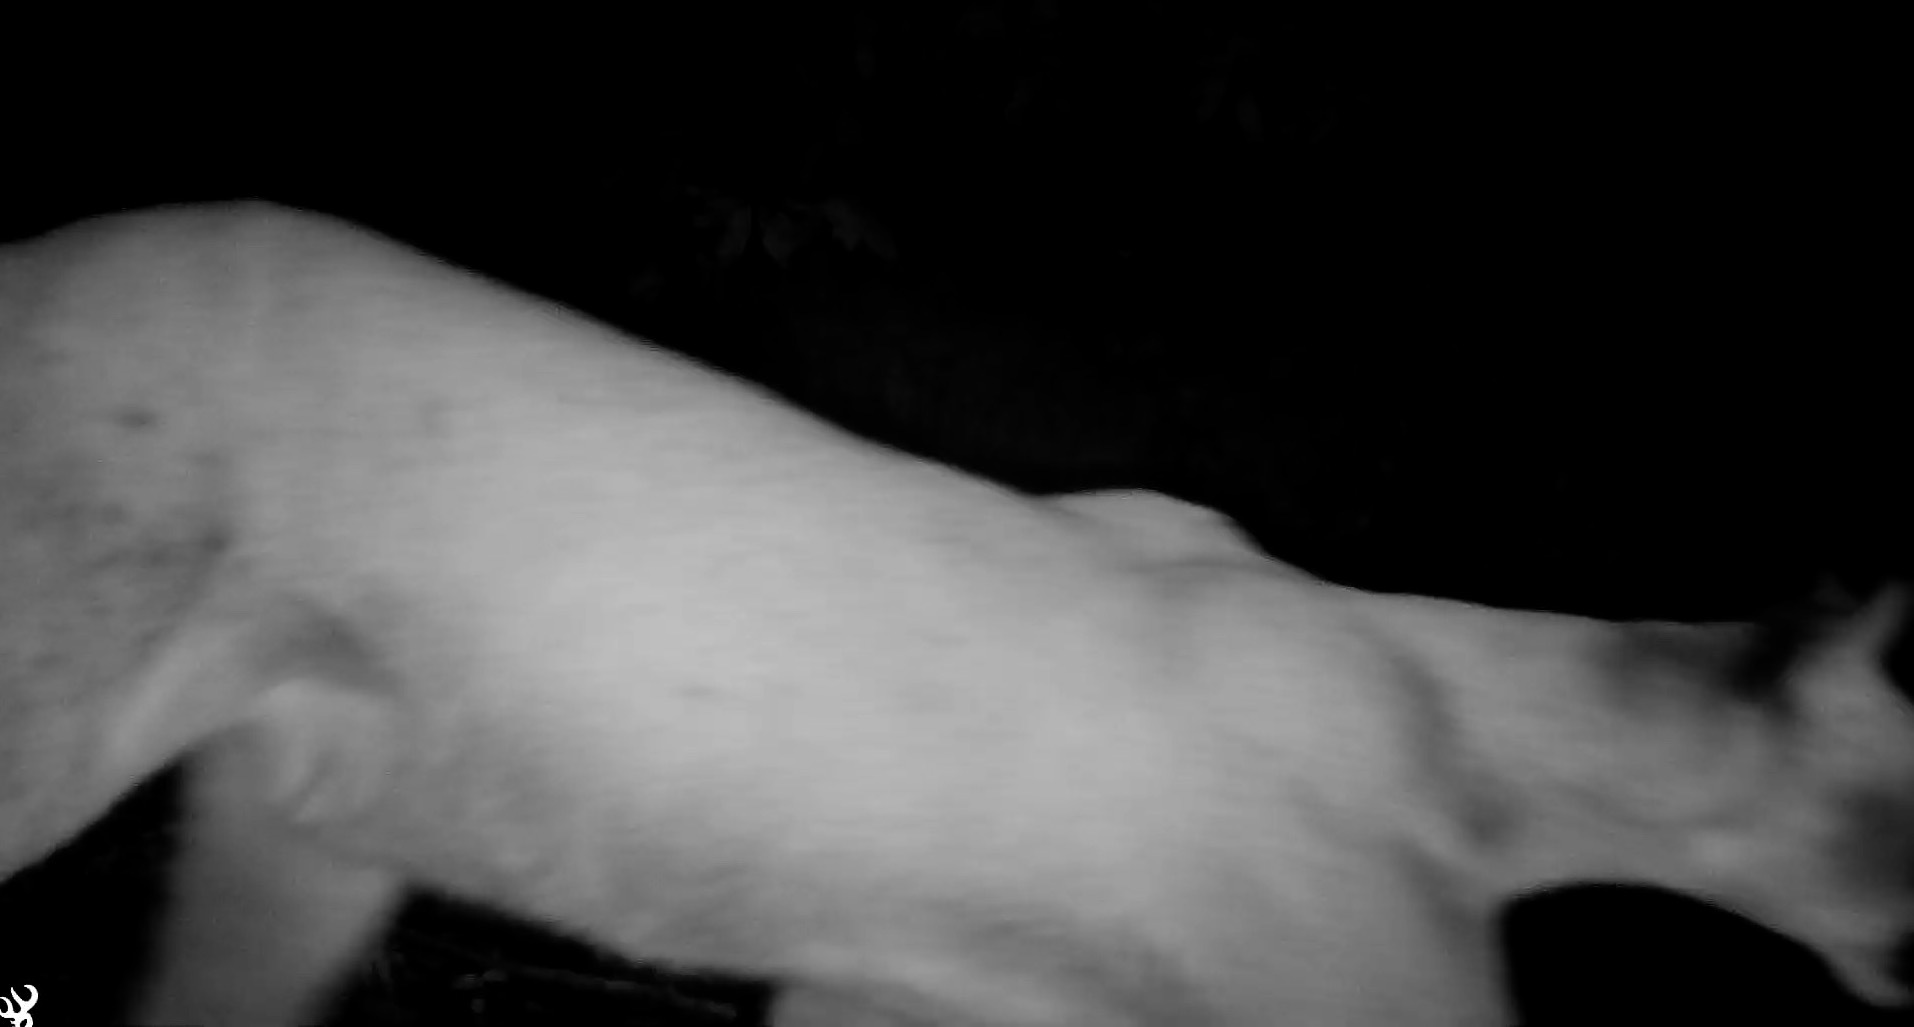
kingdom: Animalia
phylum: Chordata
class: Mammalia
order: Carnivora
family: Felidae
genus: Puma
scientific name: Puma concolor
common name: Puma
